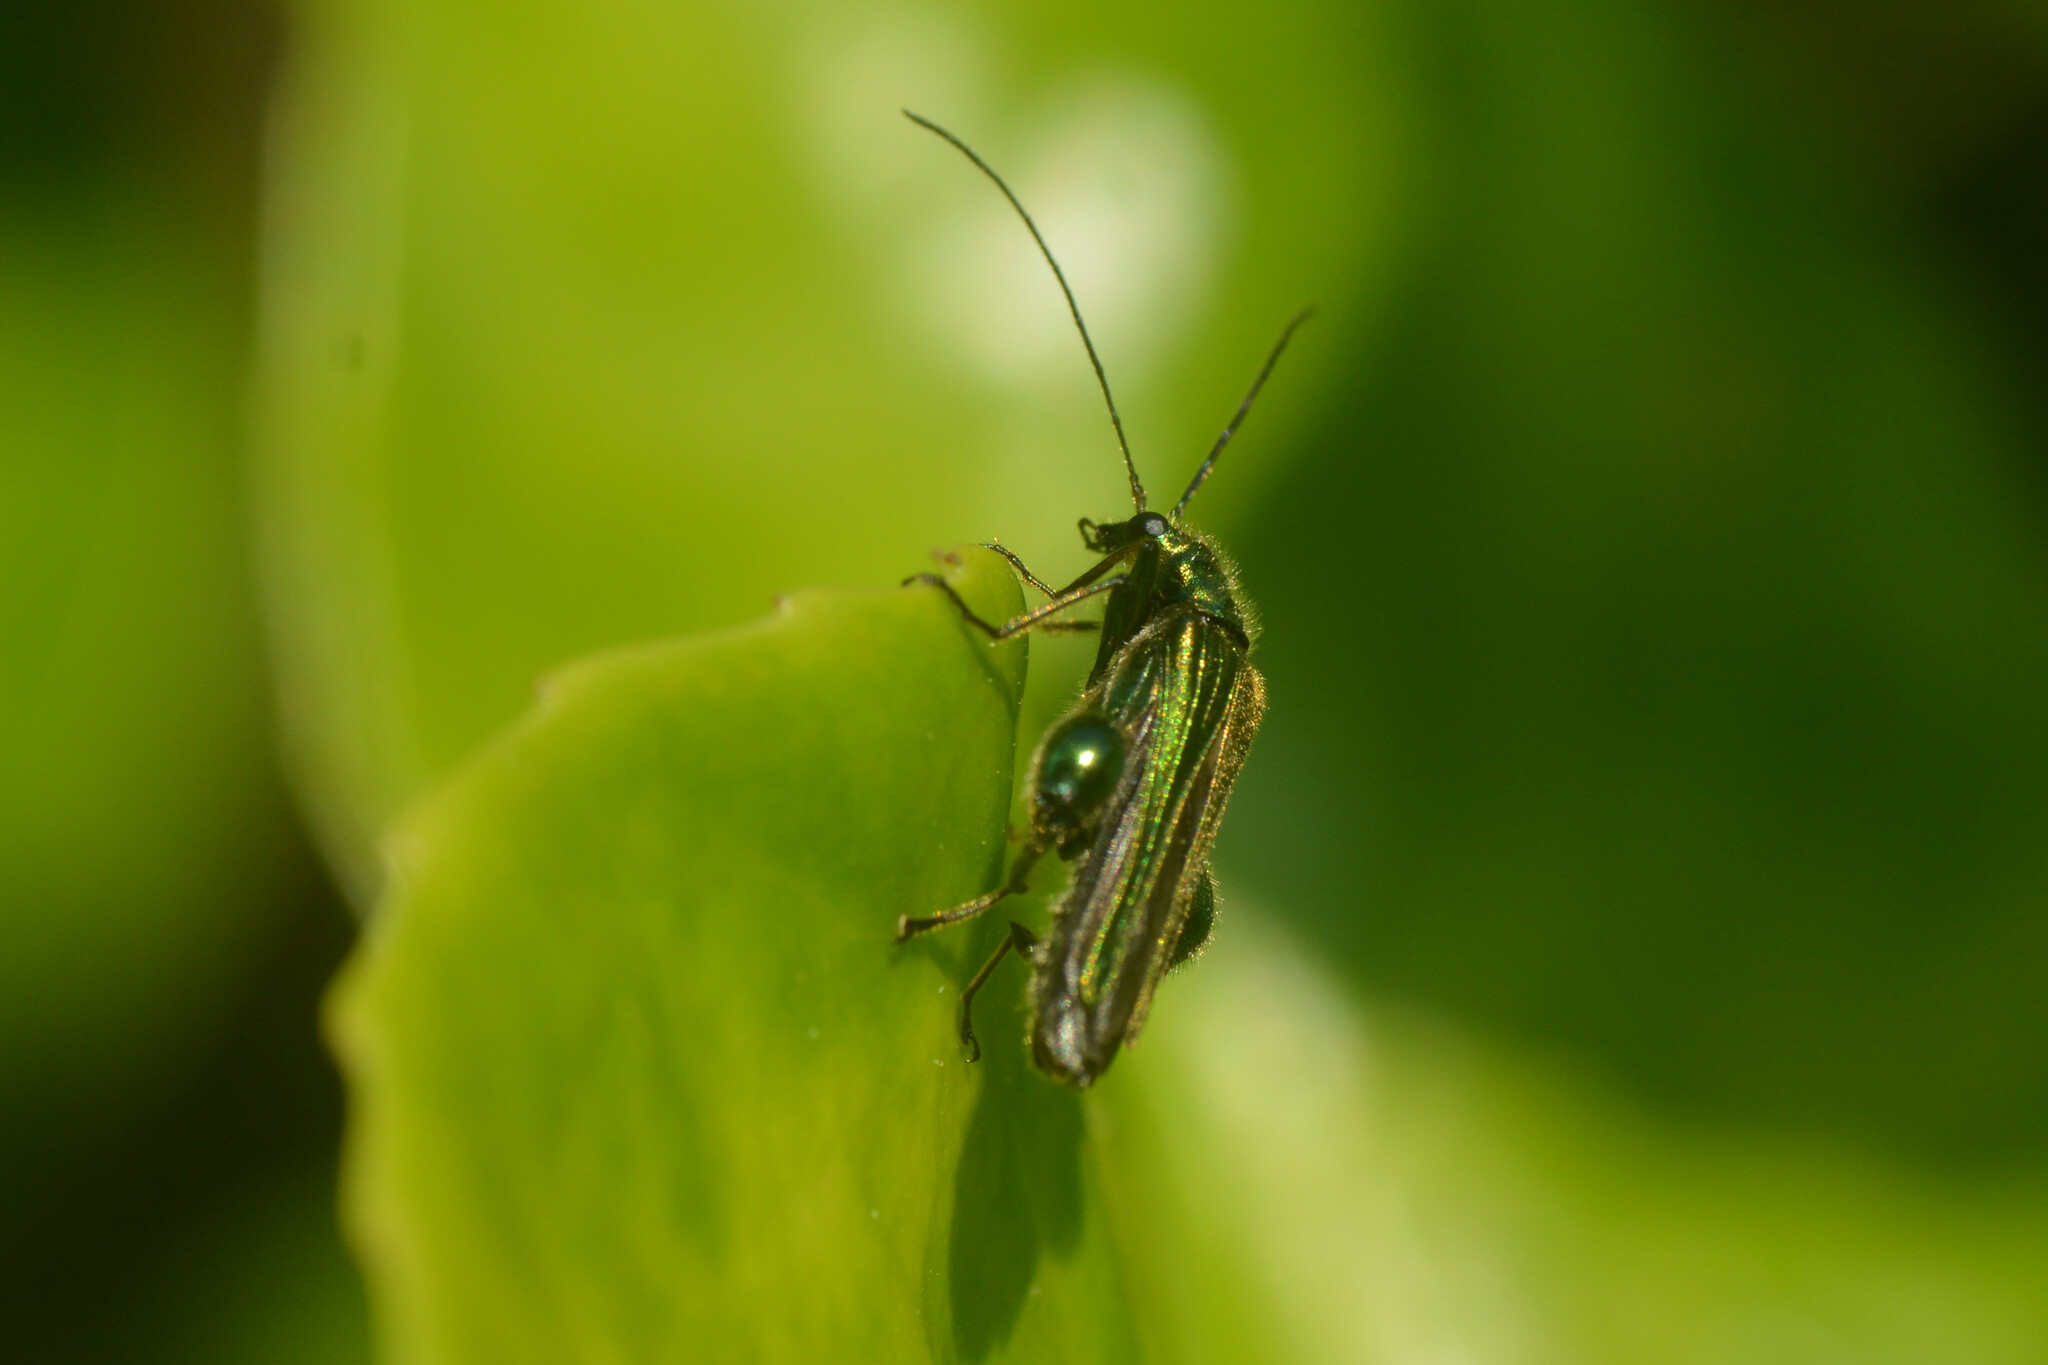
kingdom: Animalia
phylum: Arthropoda
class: Insecta
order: Coleoptera
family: Oedemeridae
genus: Oedemera
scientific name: Oedemera nobilis
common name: Swollen-thighed beetle
